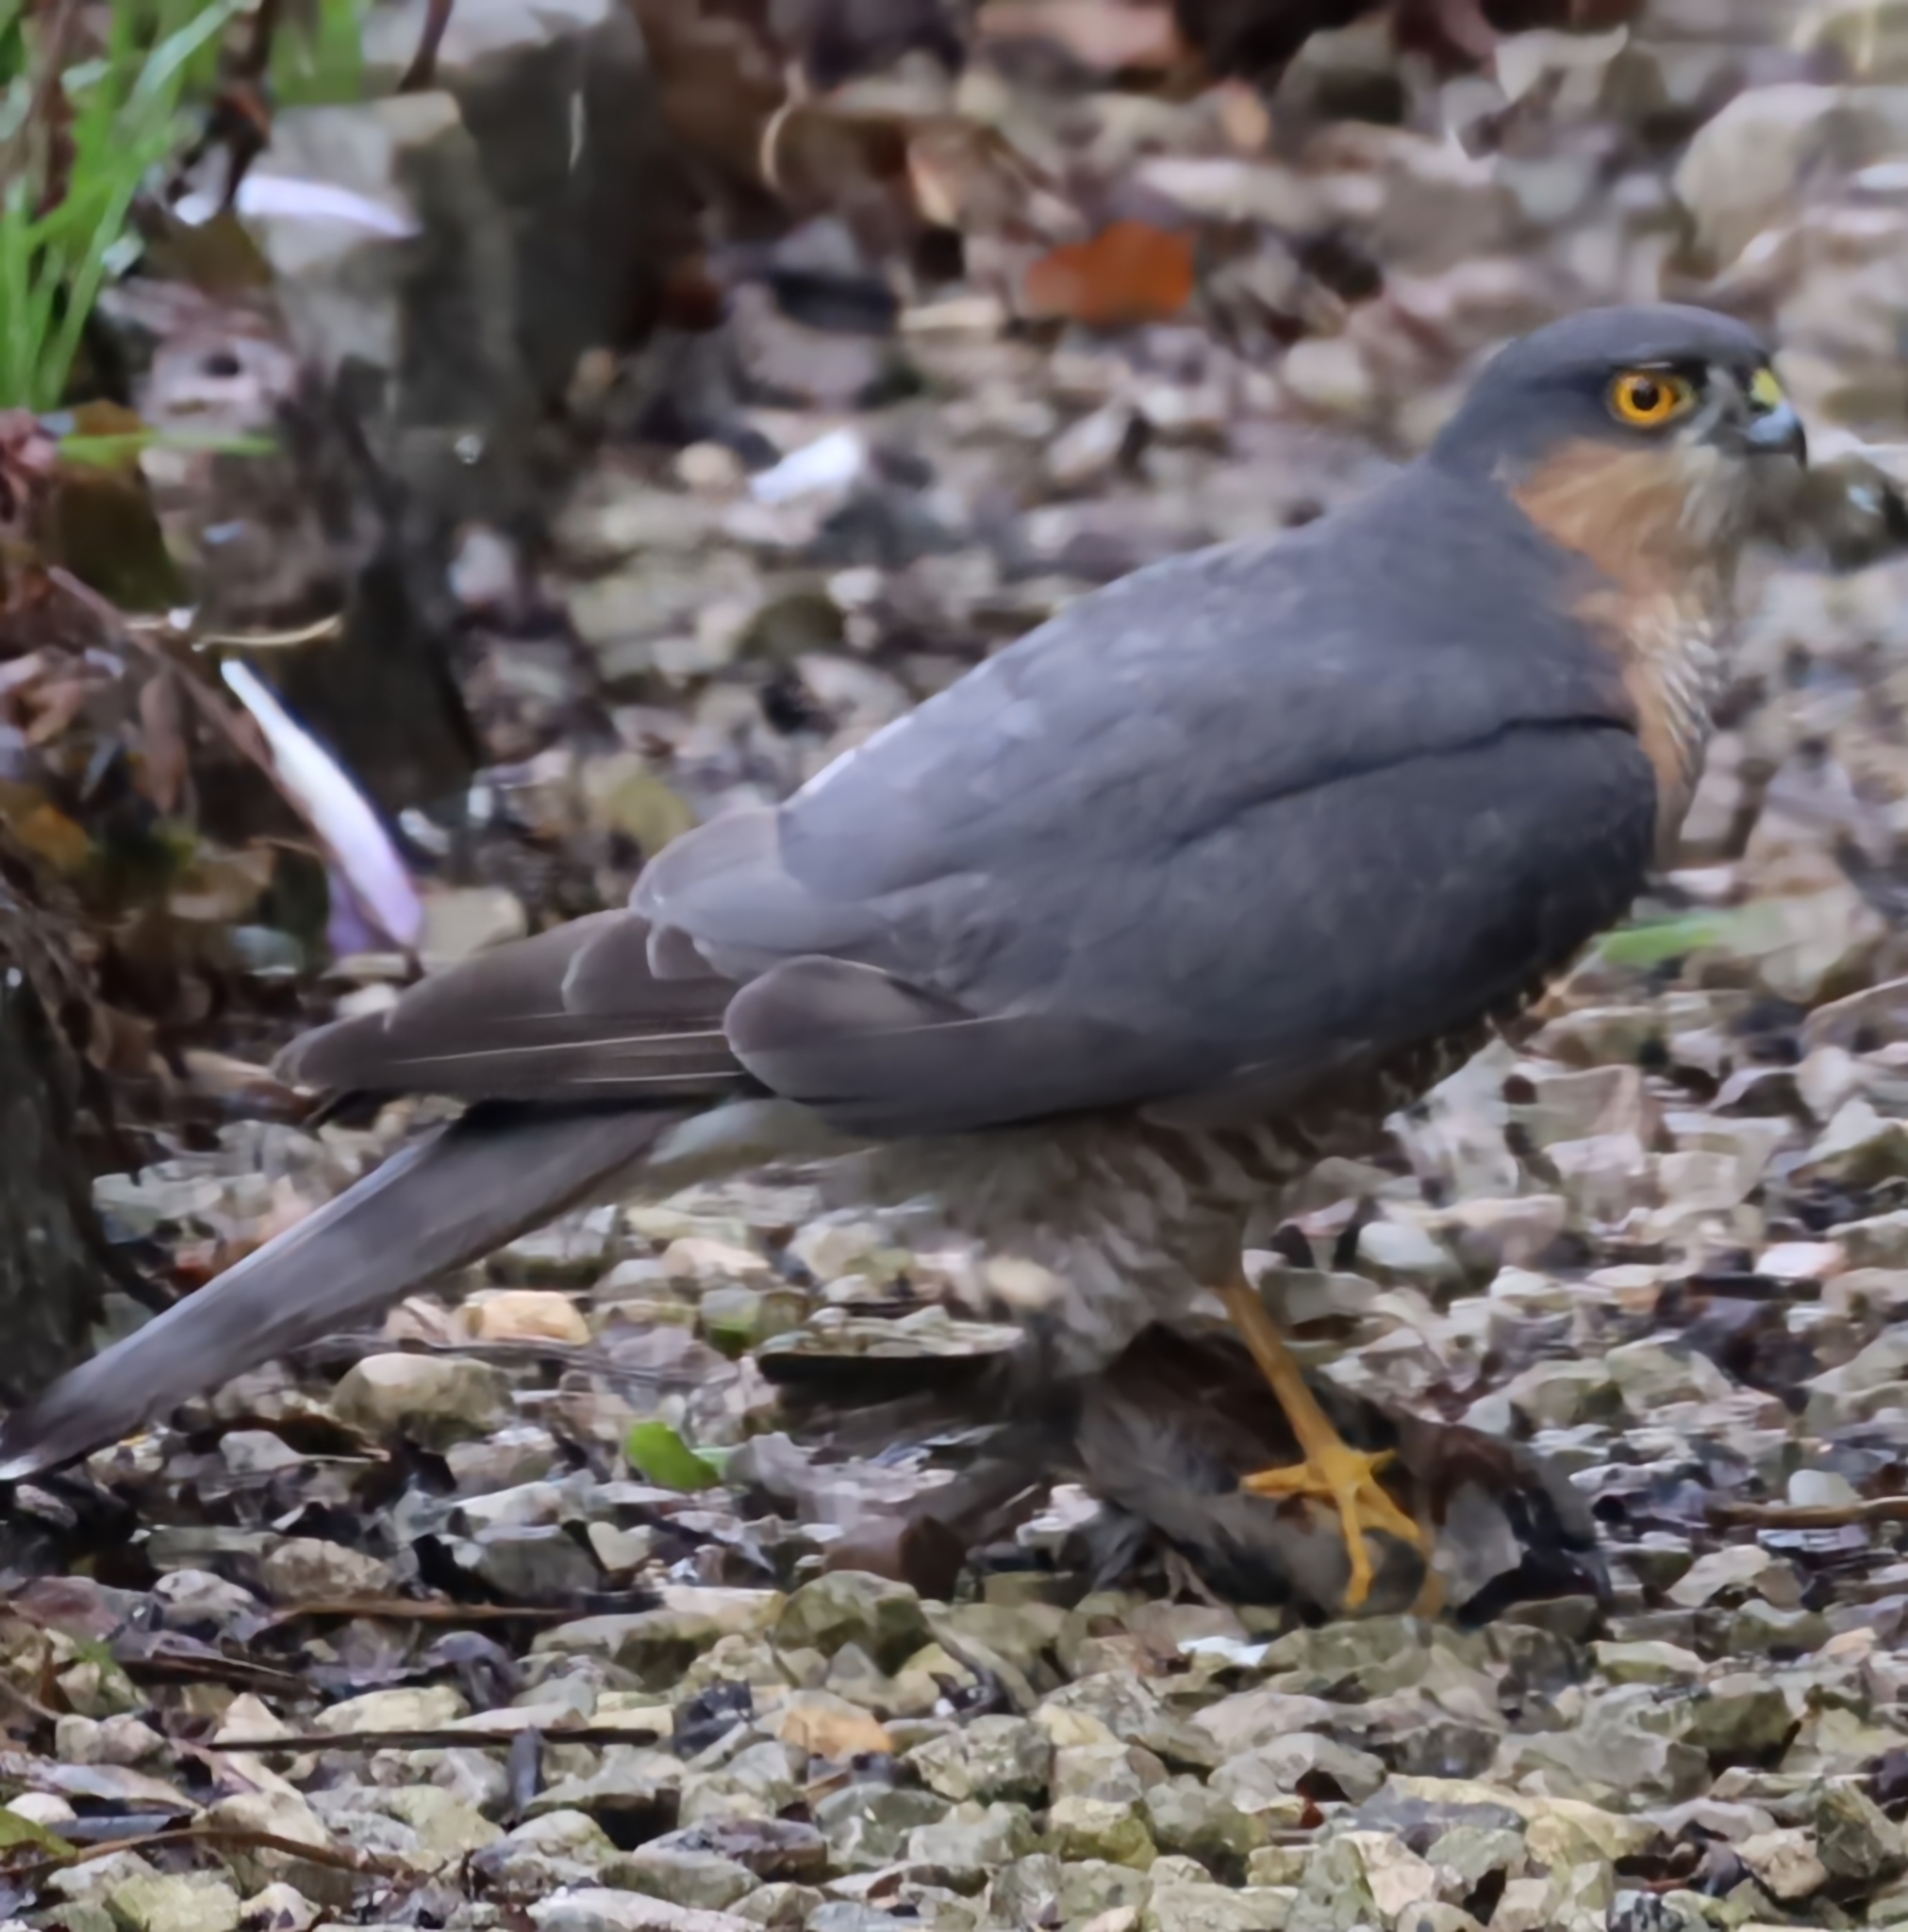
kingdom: Animalia
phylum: Chordata
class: Aves
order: Accipitriformes
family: Accipitridae
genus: Accipiter
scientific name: Accipiter nisus
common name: Eurasian sparrowhawk
